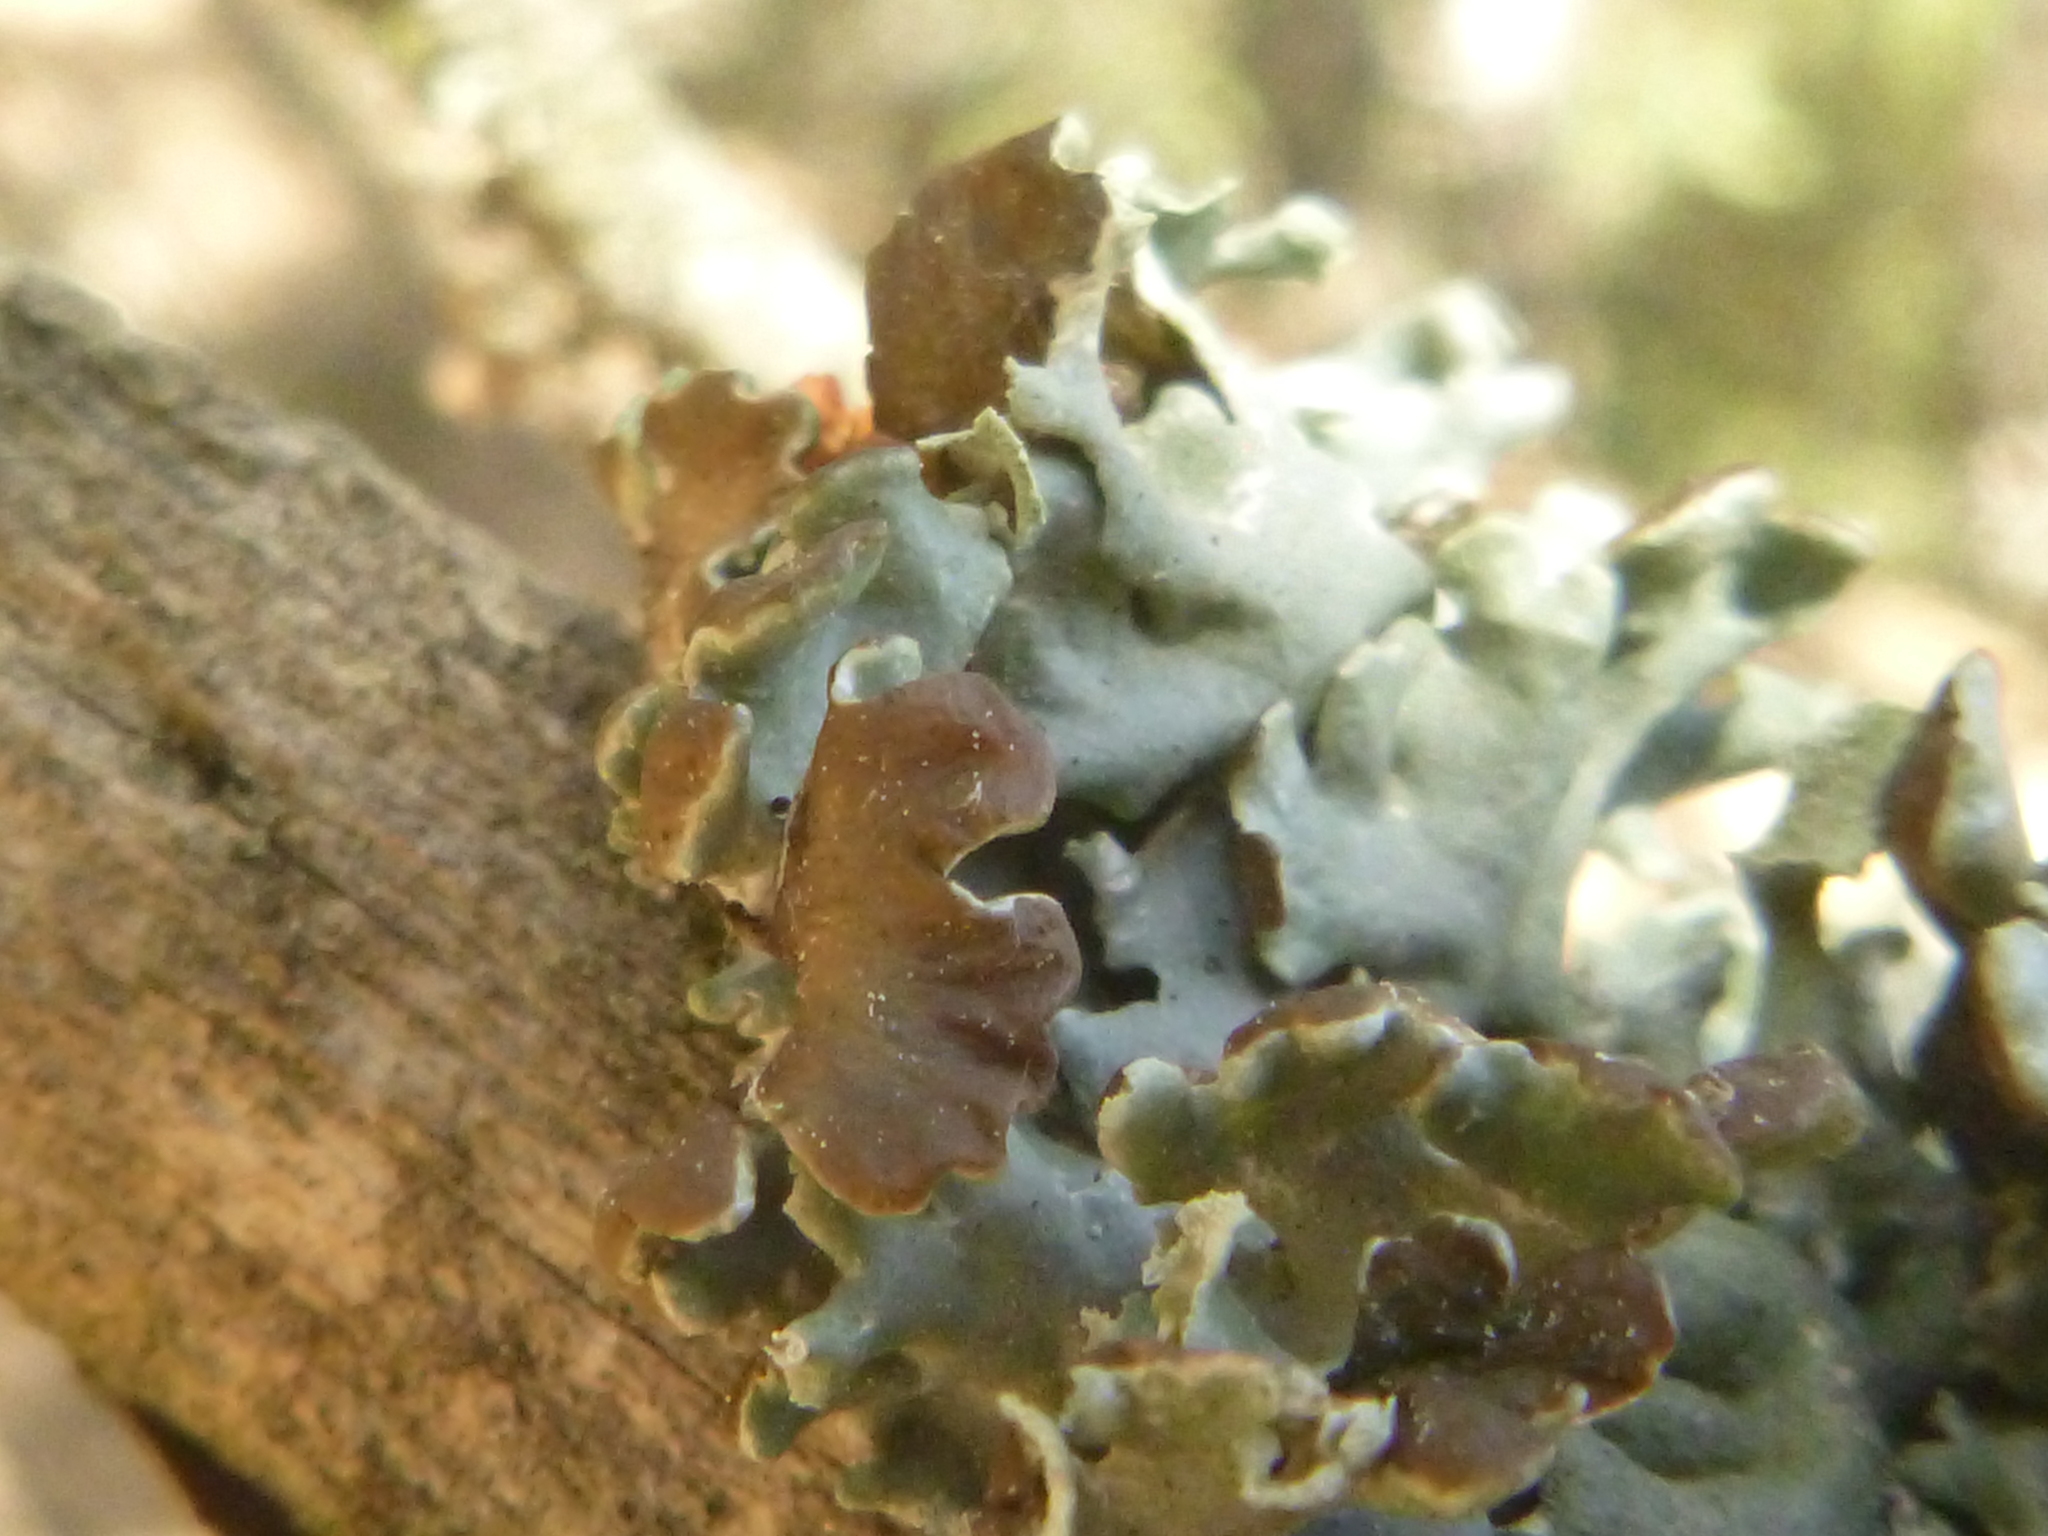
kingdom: Fungi
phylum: Ascomycota
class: Lecanoromycetes
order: Lecanorales
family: Parmeliaceae
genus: Hypogymnia
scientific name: Hypogymnia physodes
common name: Dark crottle
